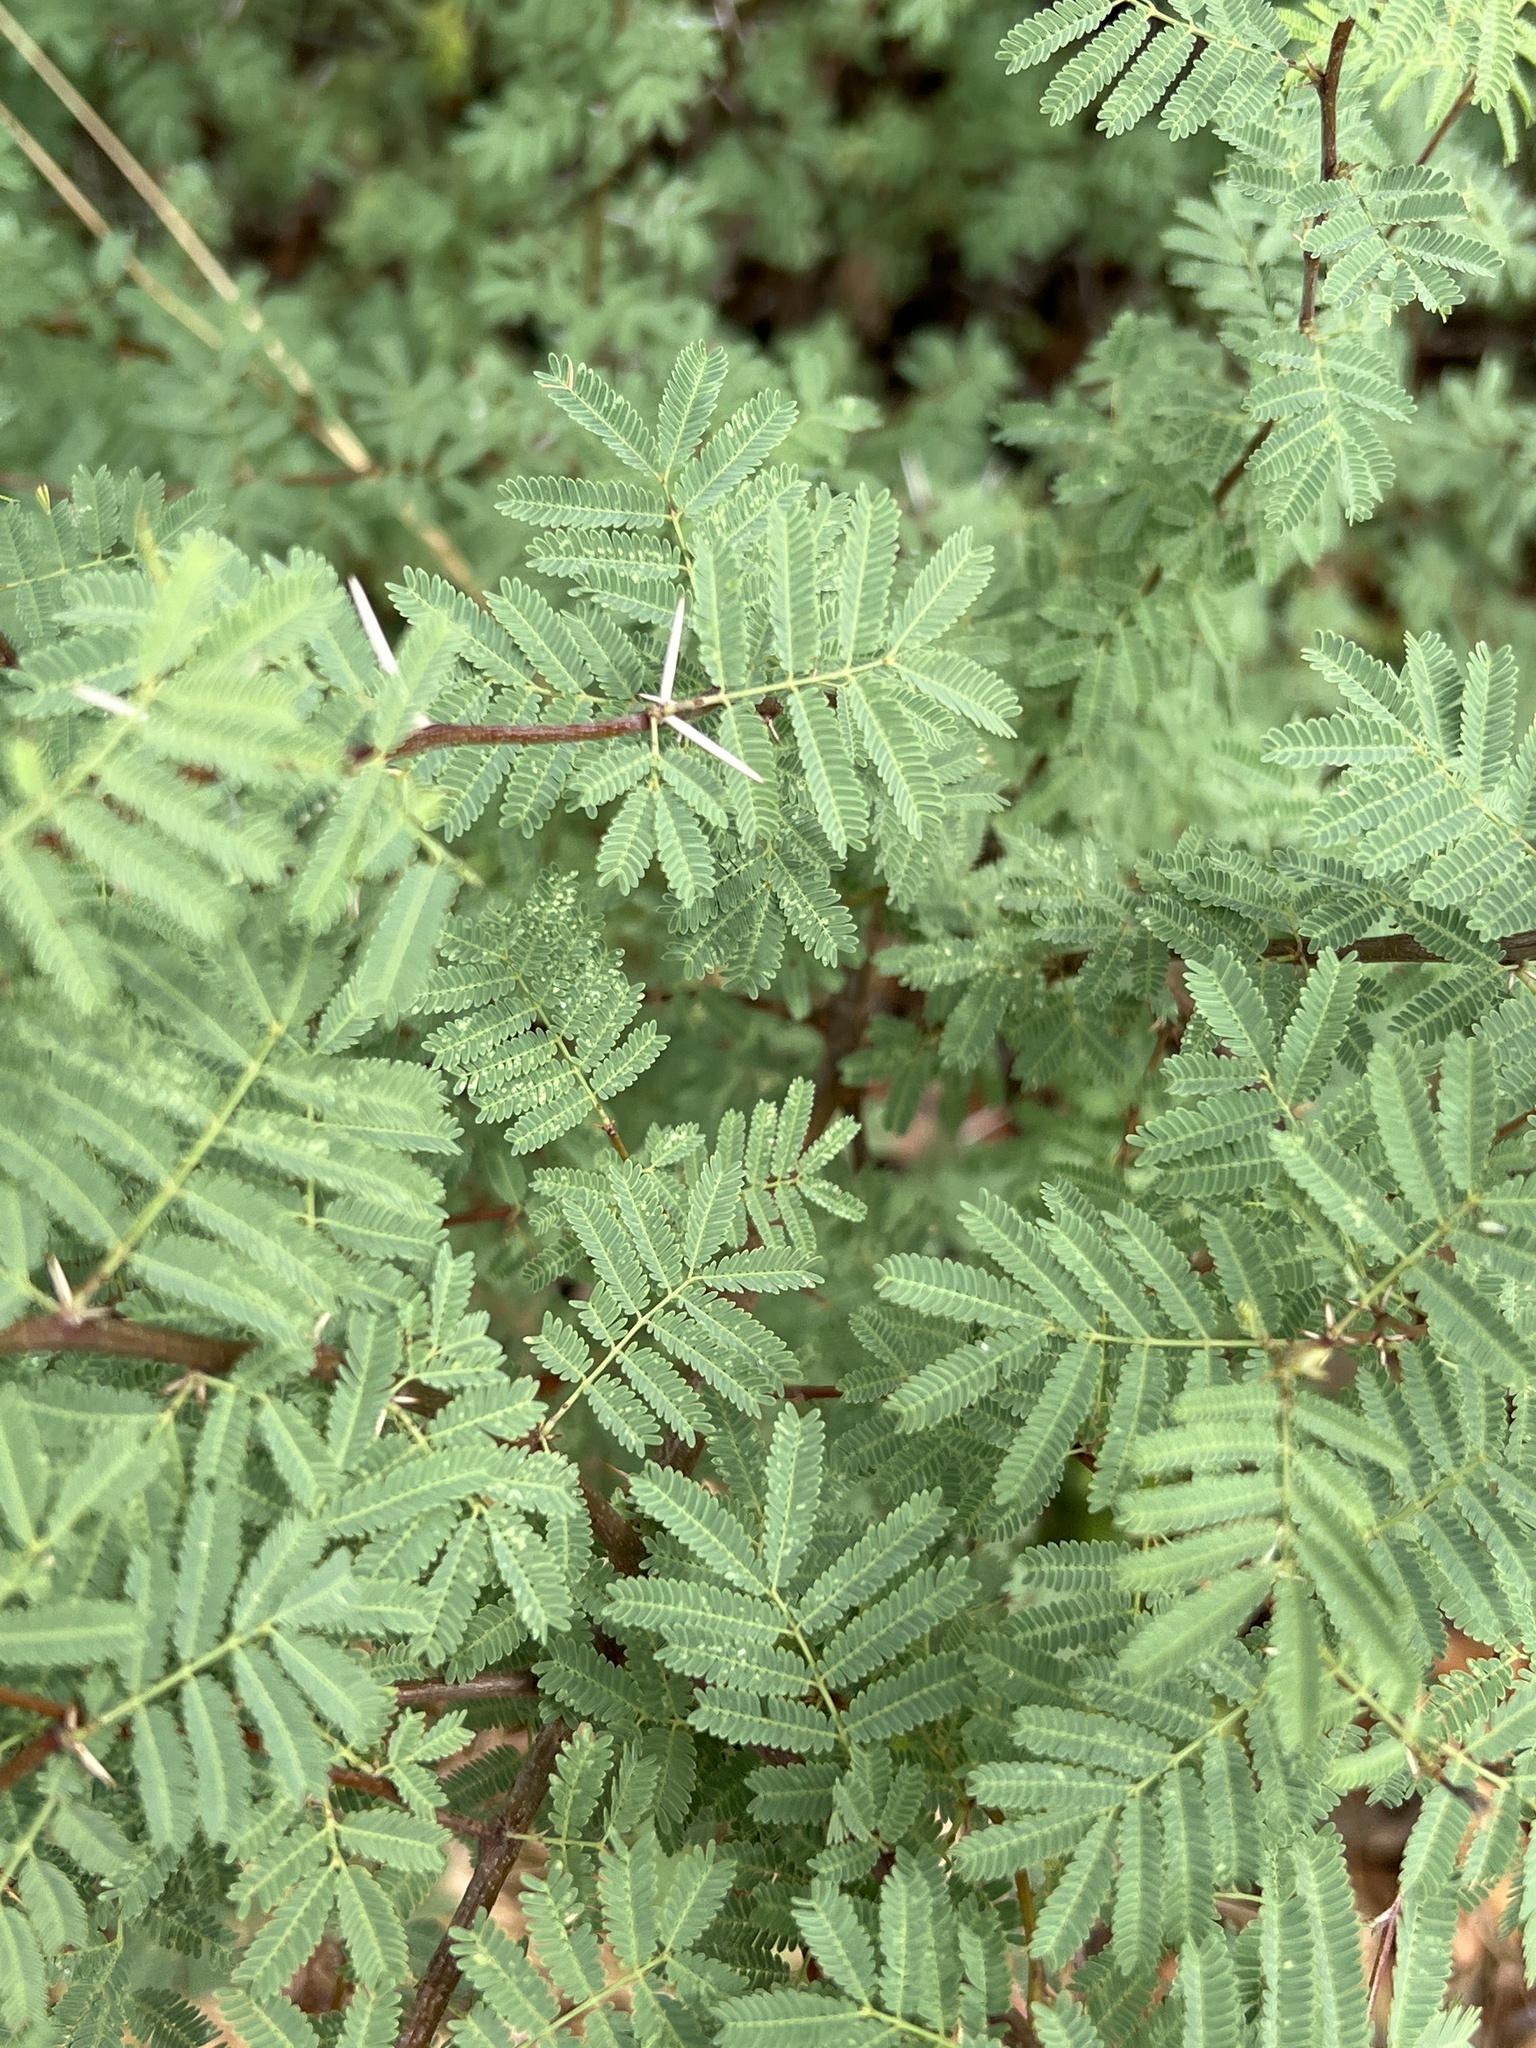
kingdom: Plantae
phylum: Tracheophyta
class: Magnoliopsida
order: Fabales
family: Fabaceae
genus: Vachellia
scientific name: Vachellia farnesiana
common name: Sweet acacia
